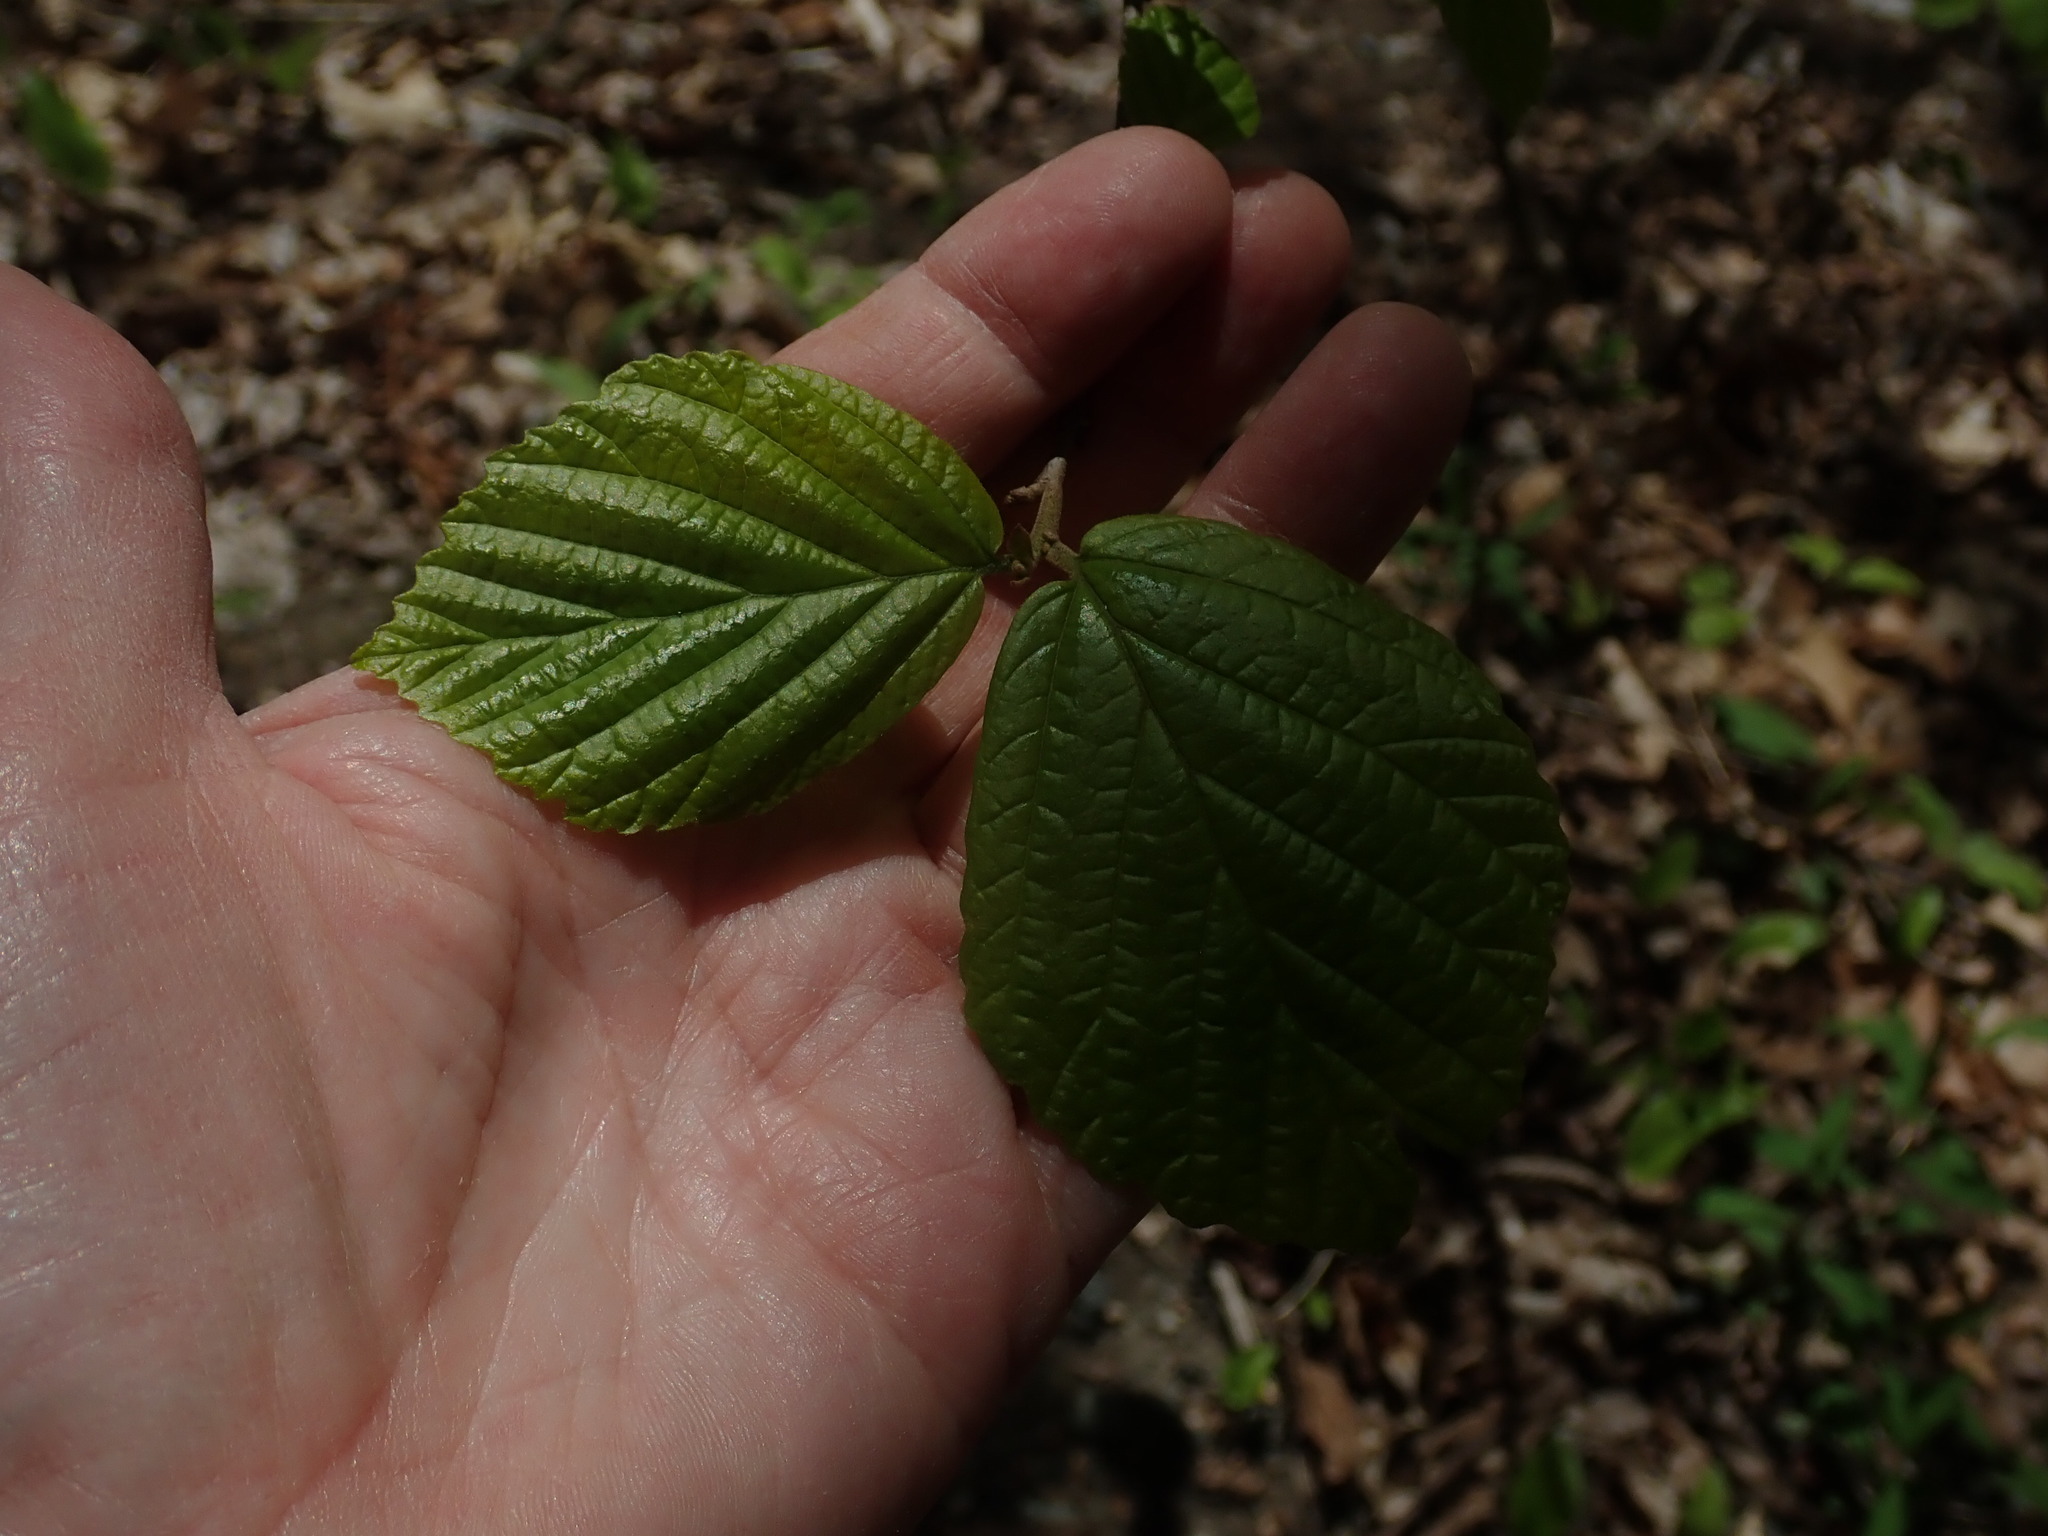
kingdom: Plantae
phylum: Tracheophyta
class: Magnoliopsida
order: Saxifragales
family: Hamamelidaceae
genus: Hamamelis
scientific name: Hamamelis virginiana
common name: Witch-hazel
